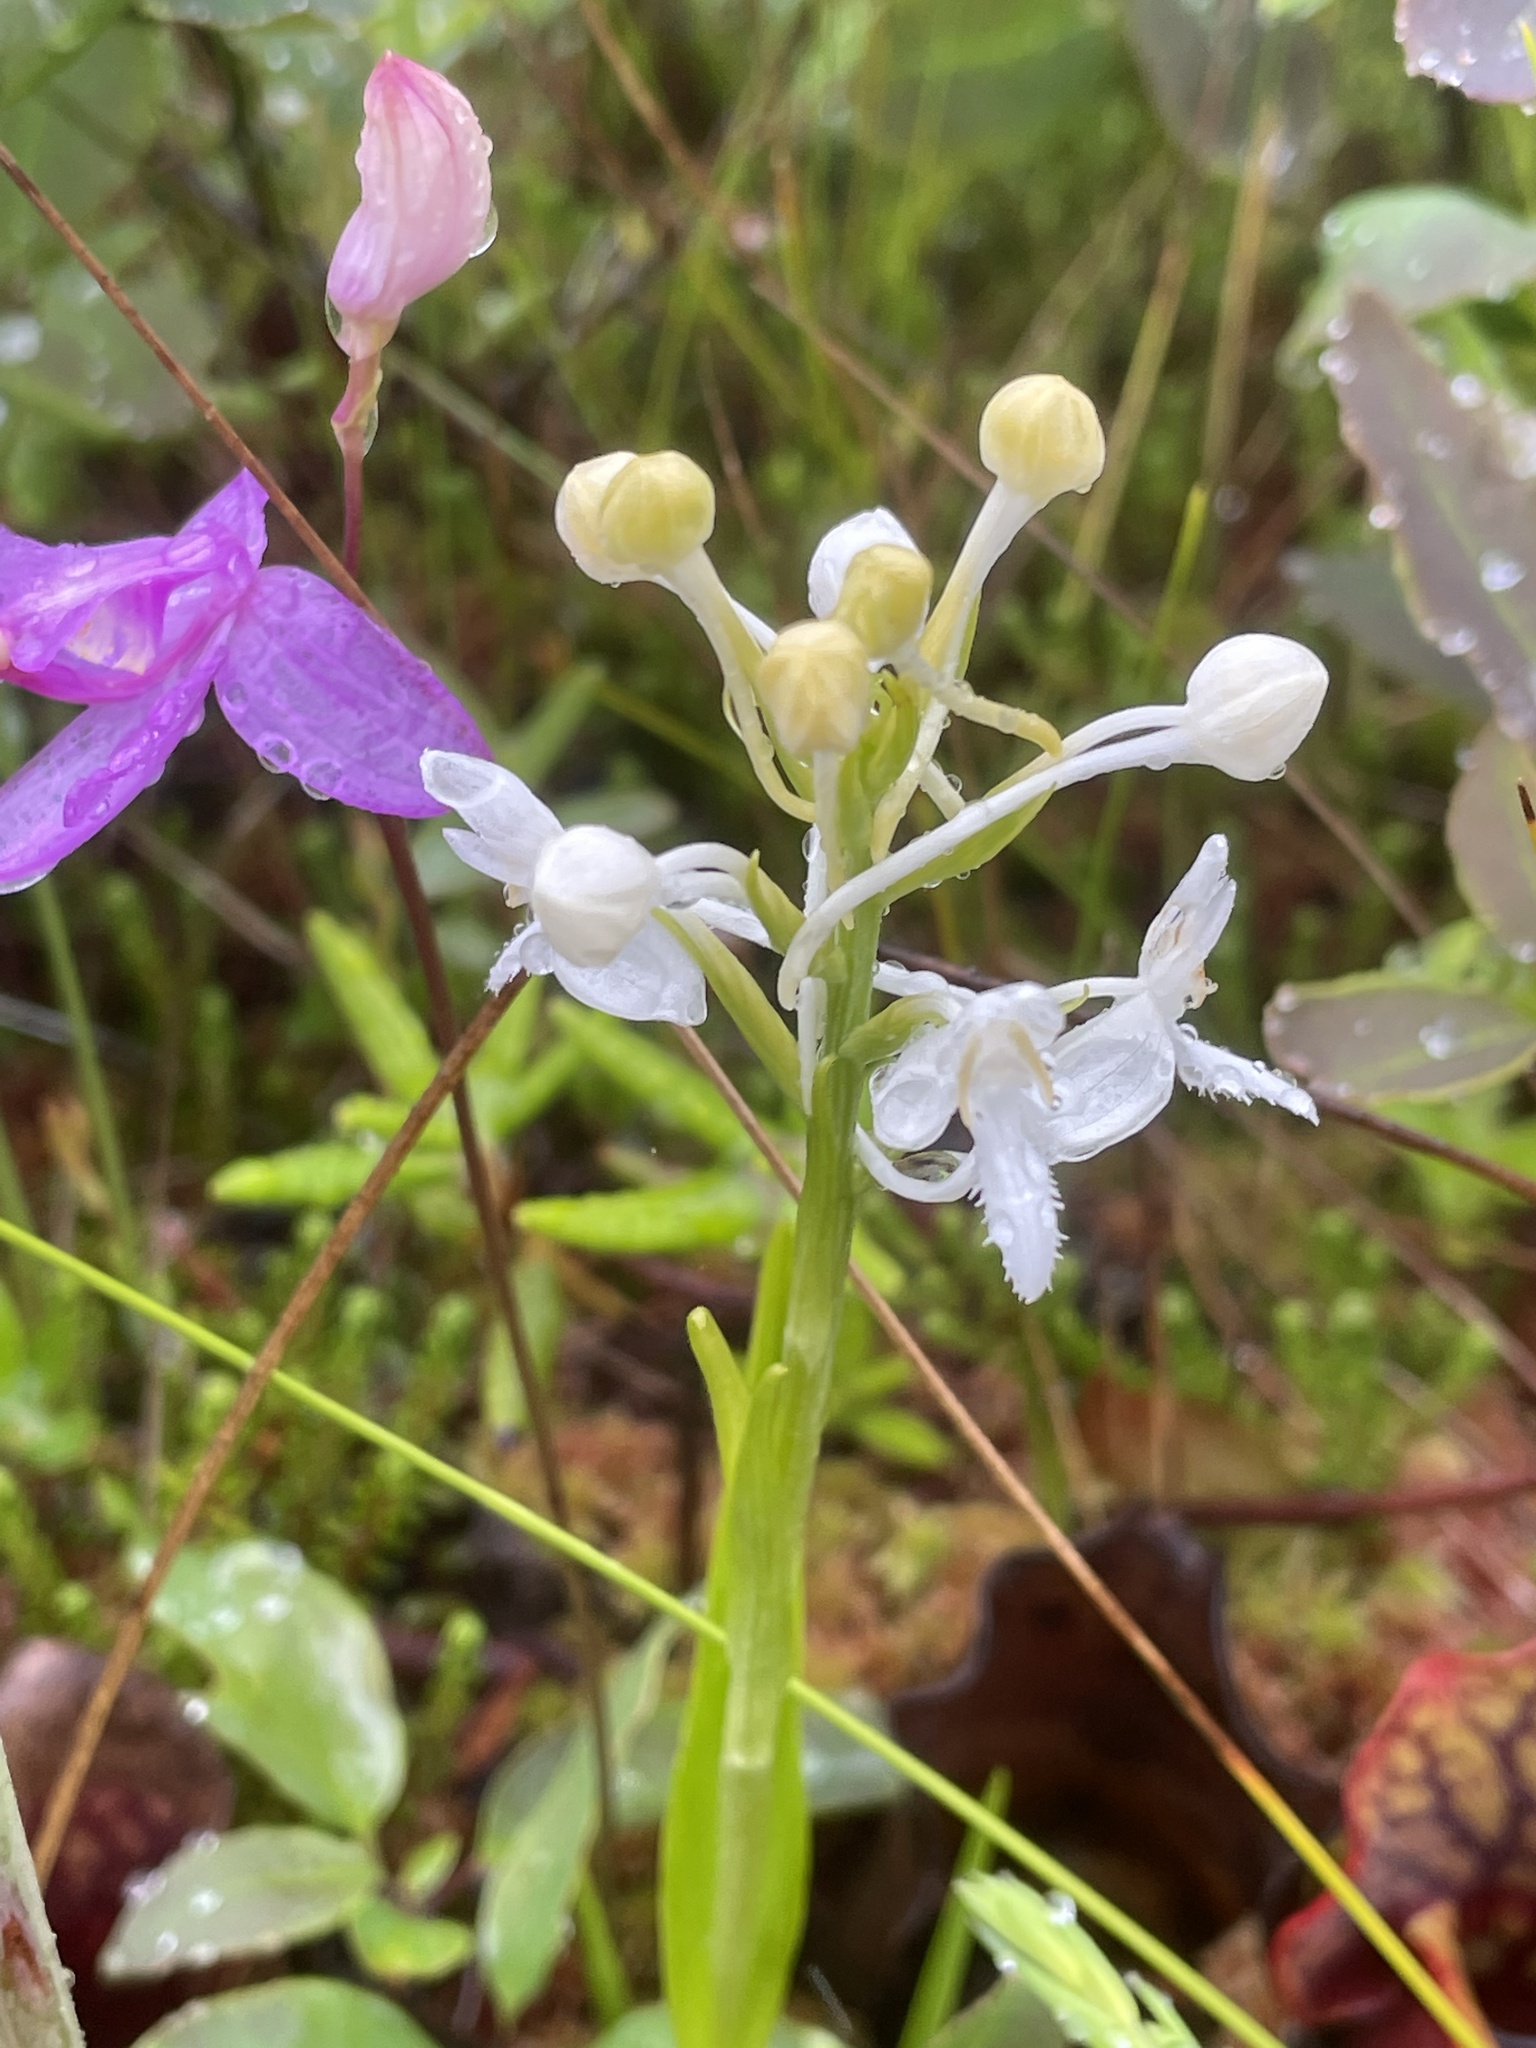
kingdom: Plantae
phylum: Tracheophyta
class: Liliopsida
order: Asparagales
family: Orchidaceae
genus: Platanthera
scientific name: Platanthera blephariglottis
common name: White fringed orchid
